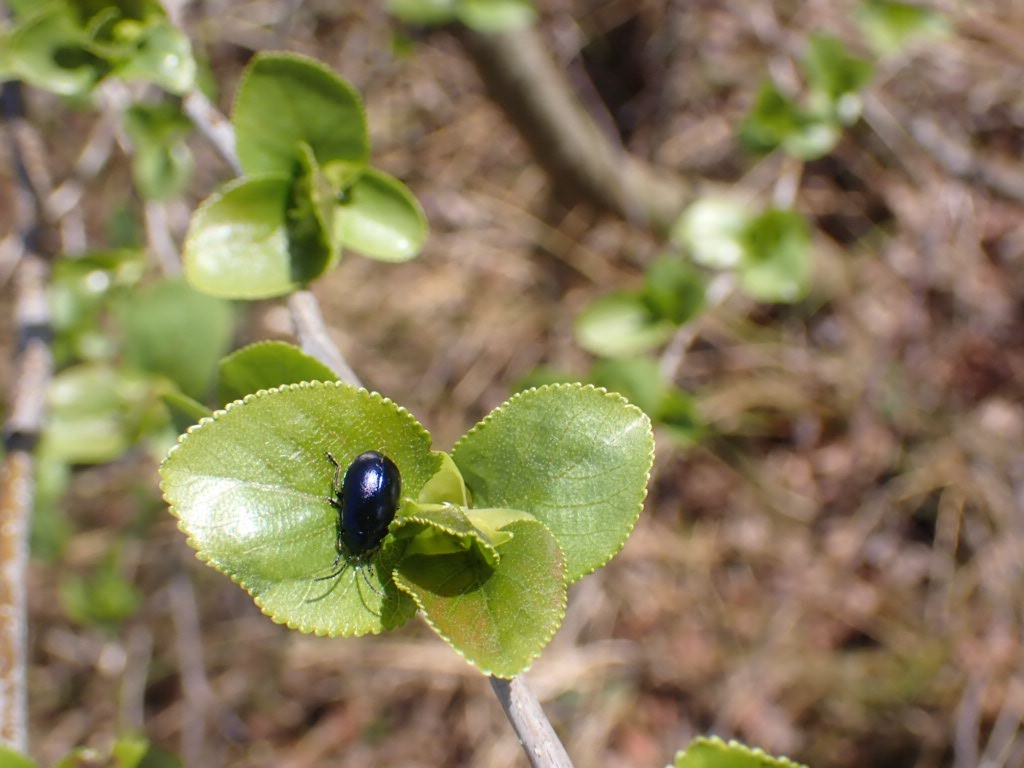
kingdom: Animalia
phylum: Arthropoda
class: Insecta
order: Coleoptera
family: Chrysomelidae
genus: Agelastica
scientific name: Agelastica alni
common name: Alder leaf beetle
